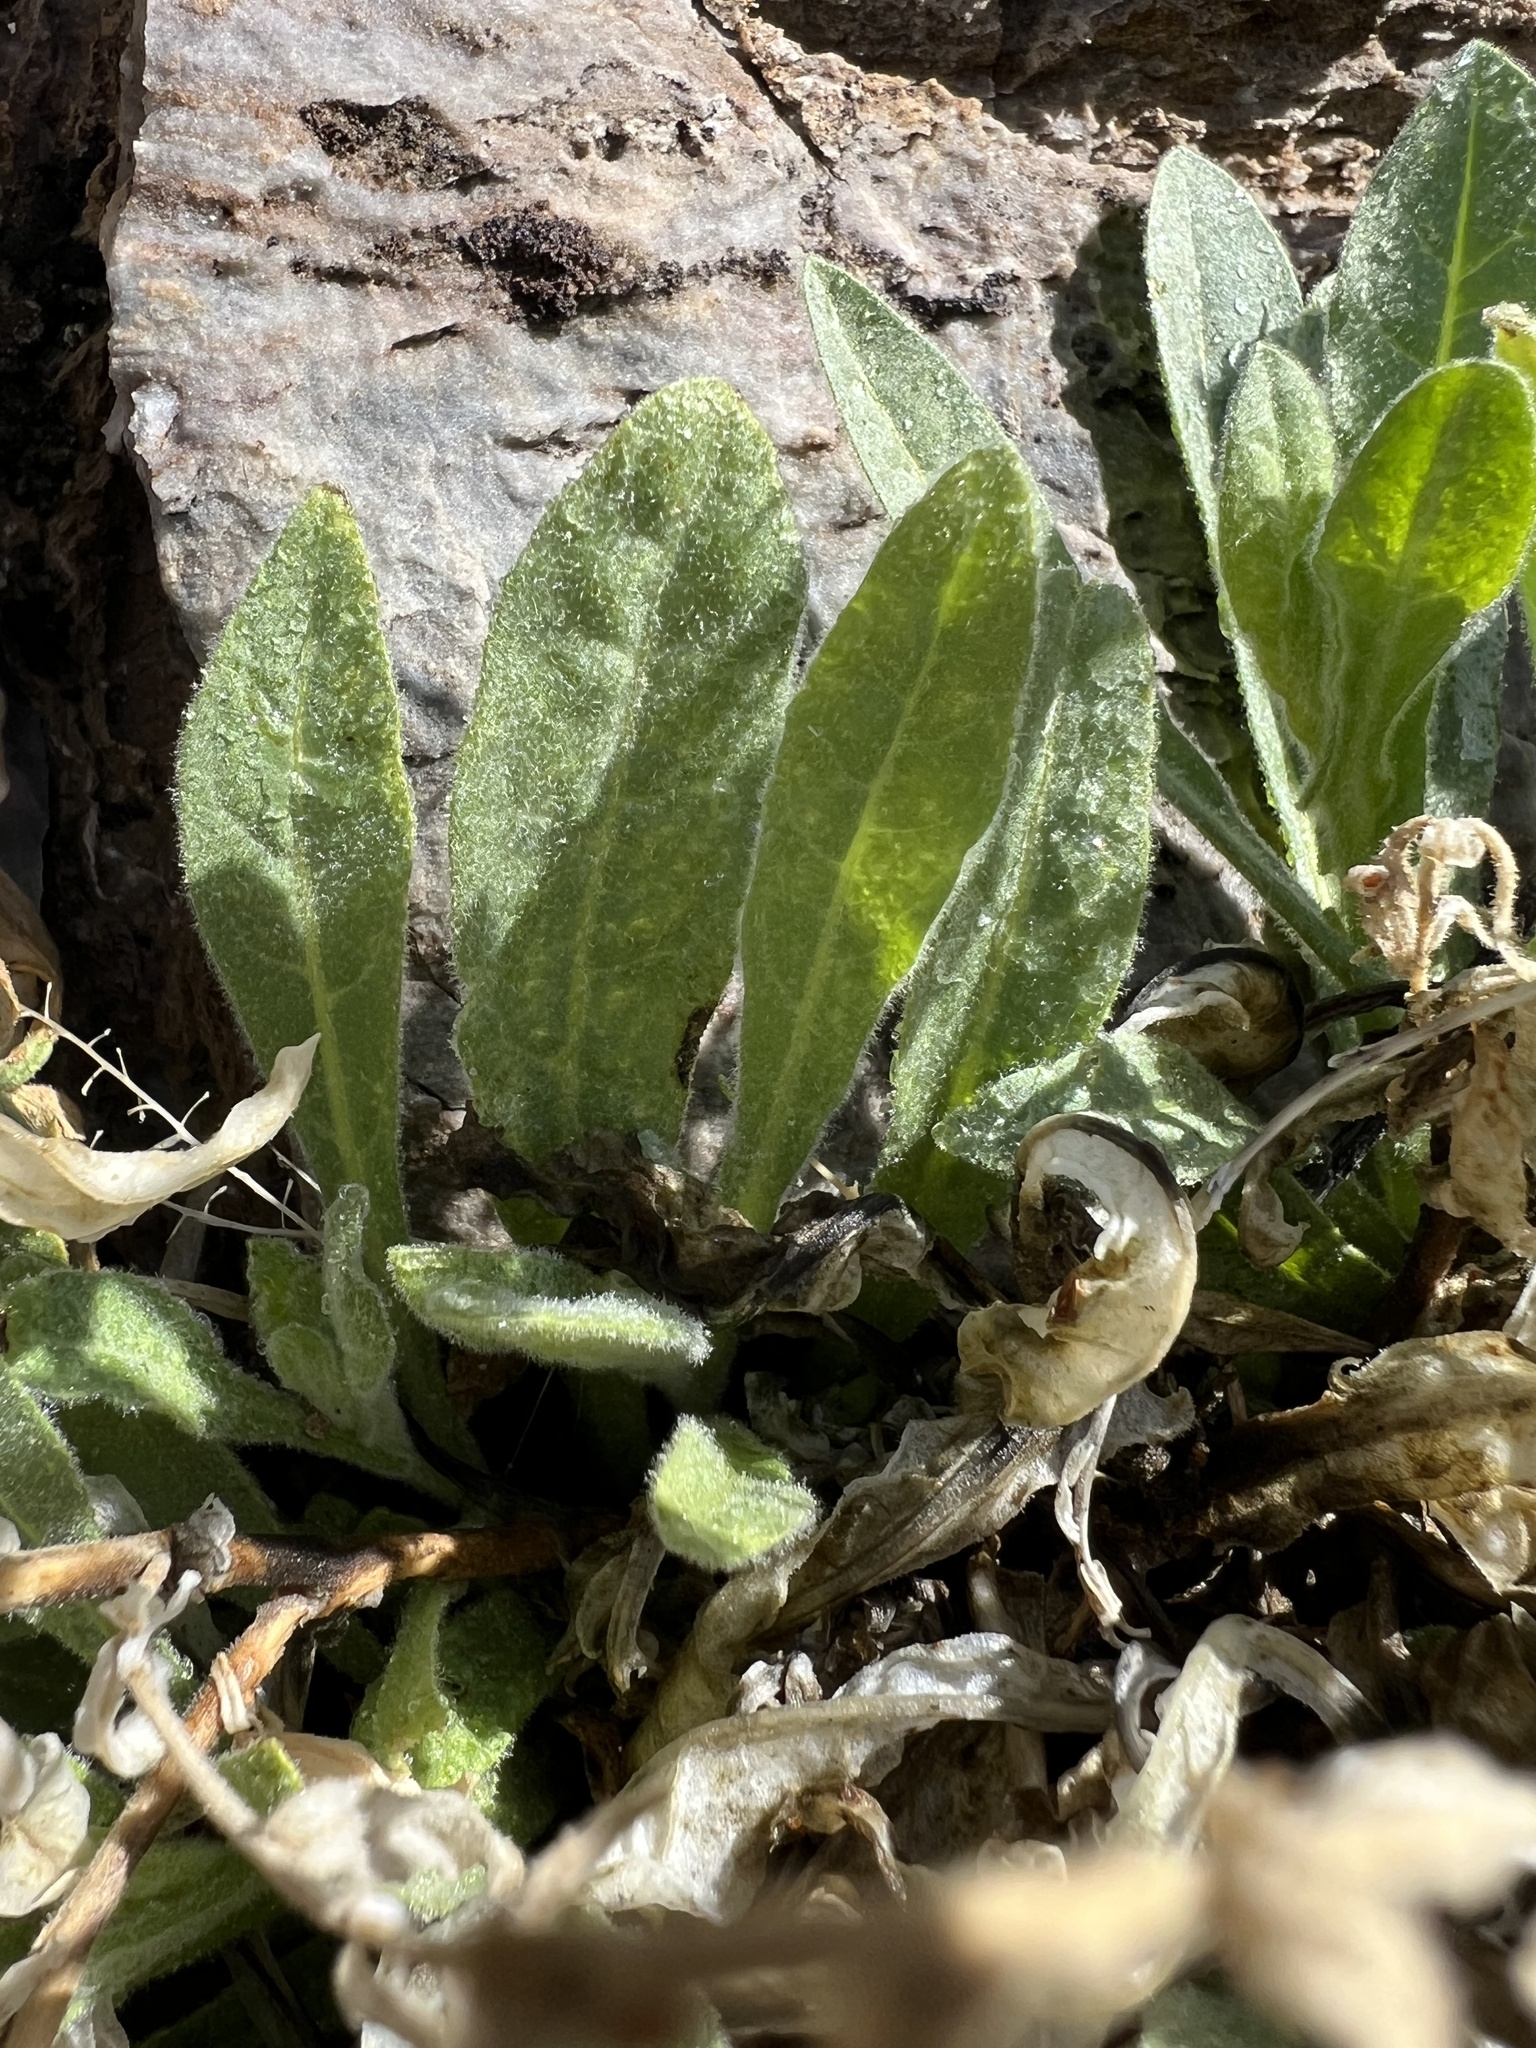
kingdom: Plantae
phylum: Tracheophyta
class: Magnoliopsida
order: Solanales
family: Solanaceae
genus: Nicotiana
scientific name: Nicotiana obtusifolia
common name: Desert tobacco
